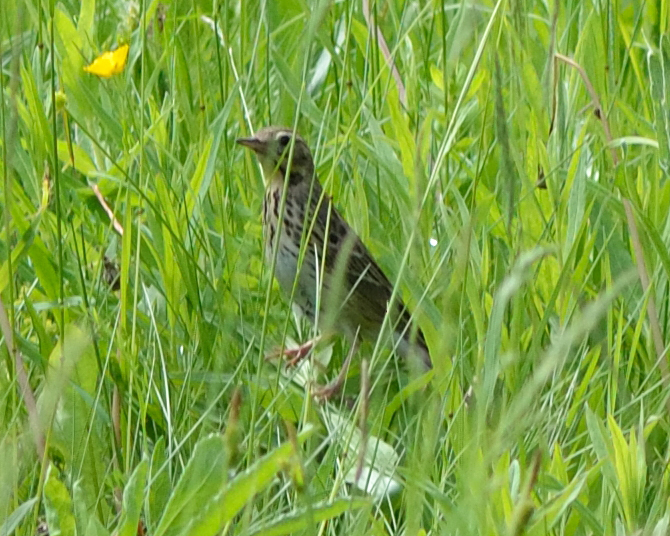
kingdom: Animalia
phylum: Chordata
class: Aves
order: Passeriformes
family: Motacillidae
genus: Anthus
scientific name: Anthus trivialis
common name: Tree pipit
